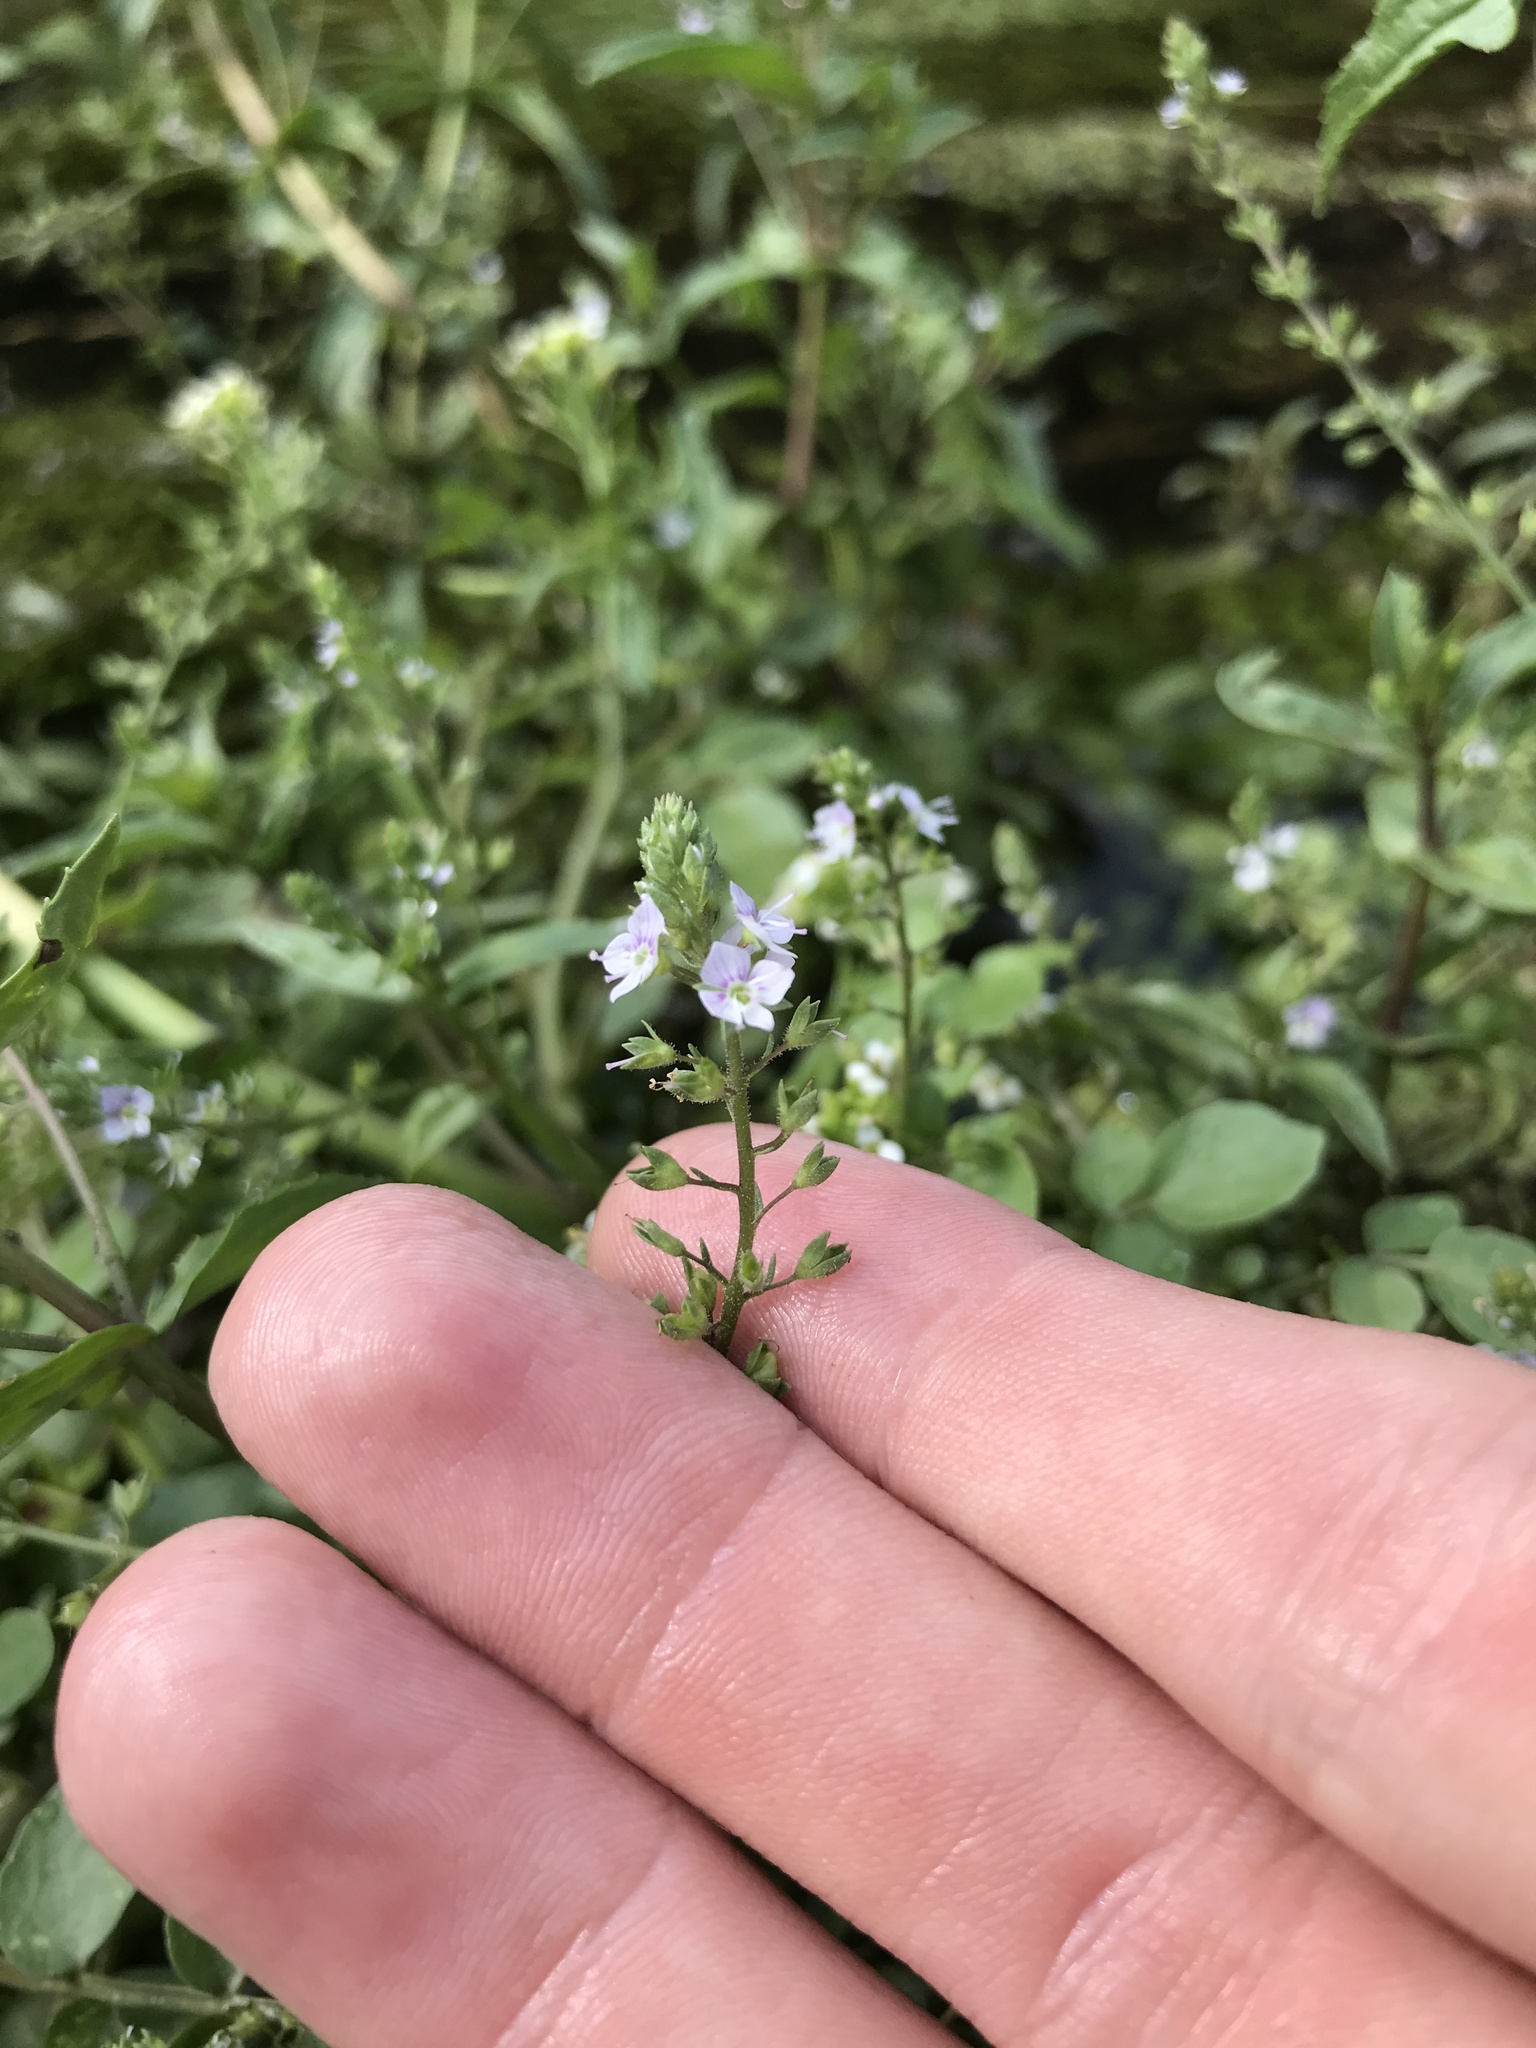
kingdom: Plantae
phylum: Tracheophyta
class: Magnoliopsida
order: Lamiales
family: Plantaginaceae
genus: Veronica
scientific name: Veronica anagallis-aquatica
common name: Water speedwell
